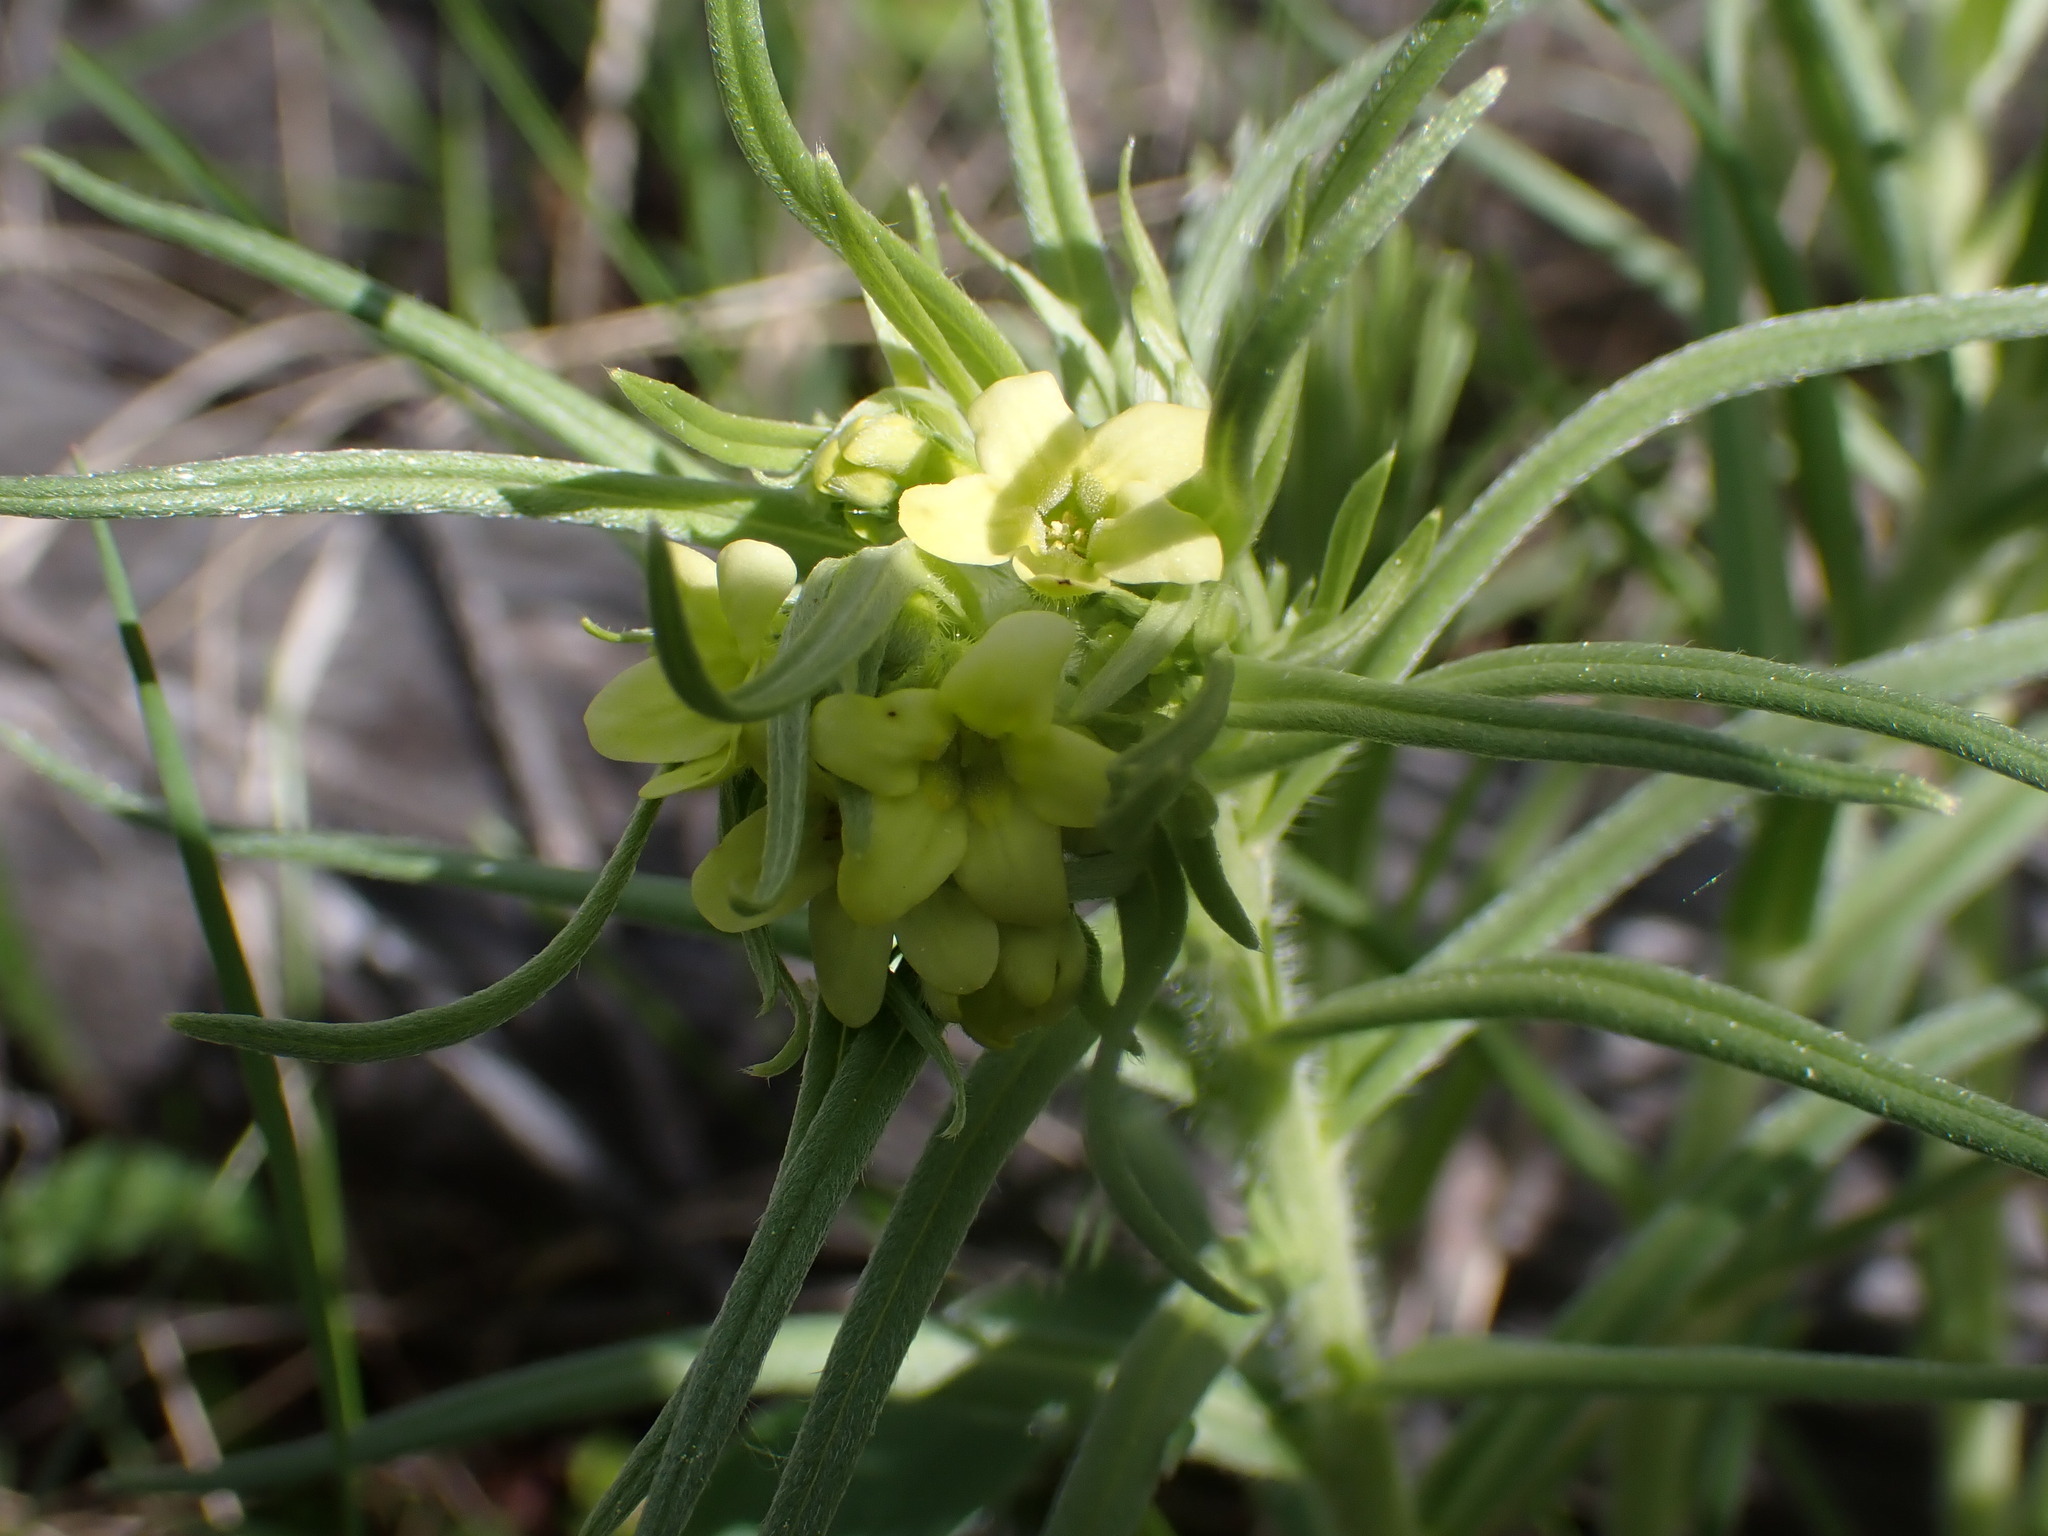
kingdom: Plantae
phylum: Tracheophyta
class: Magnoliopsida
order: Boraginales
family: Boraginaceae
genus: Lithospermum
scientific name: Lithospermum ruderale
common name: Western gromwell
